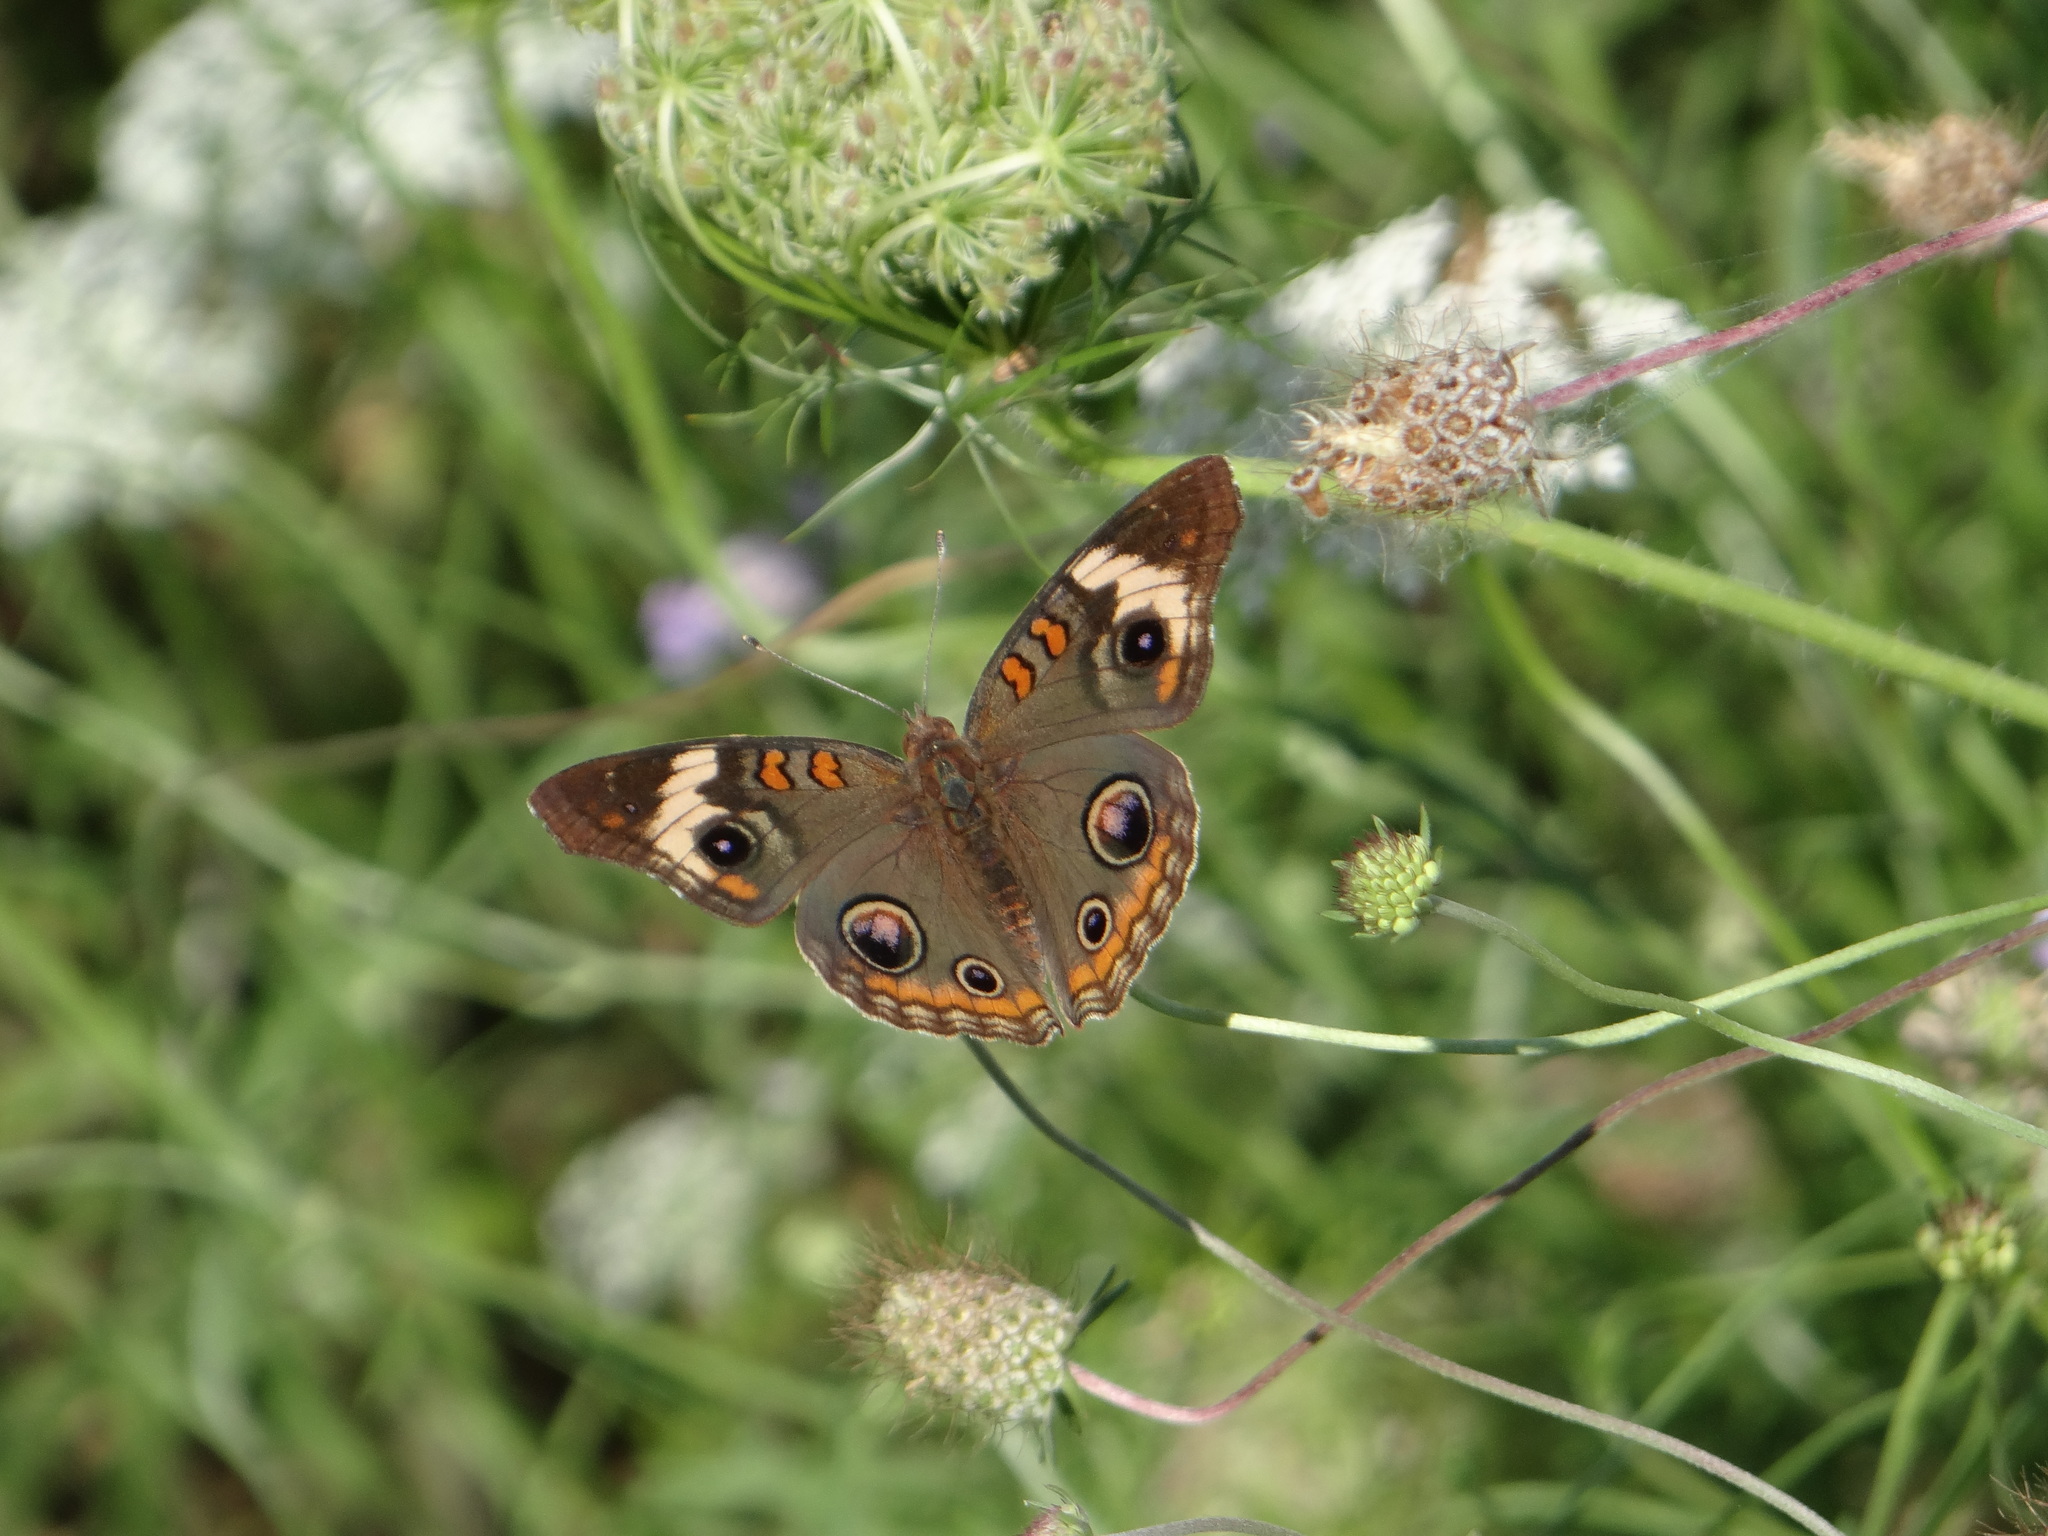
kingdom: Animalia
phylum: Arthropoda
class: Insecta
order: Lepidoptera
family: Nymphalidae
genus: Junonia
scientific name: Junonia coenia
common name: Common buckeye
